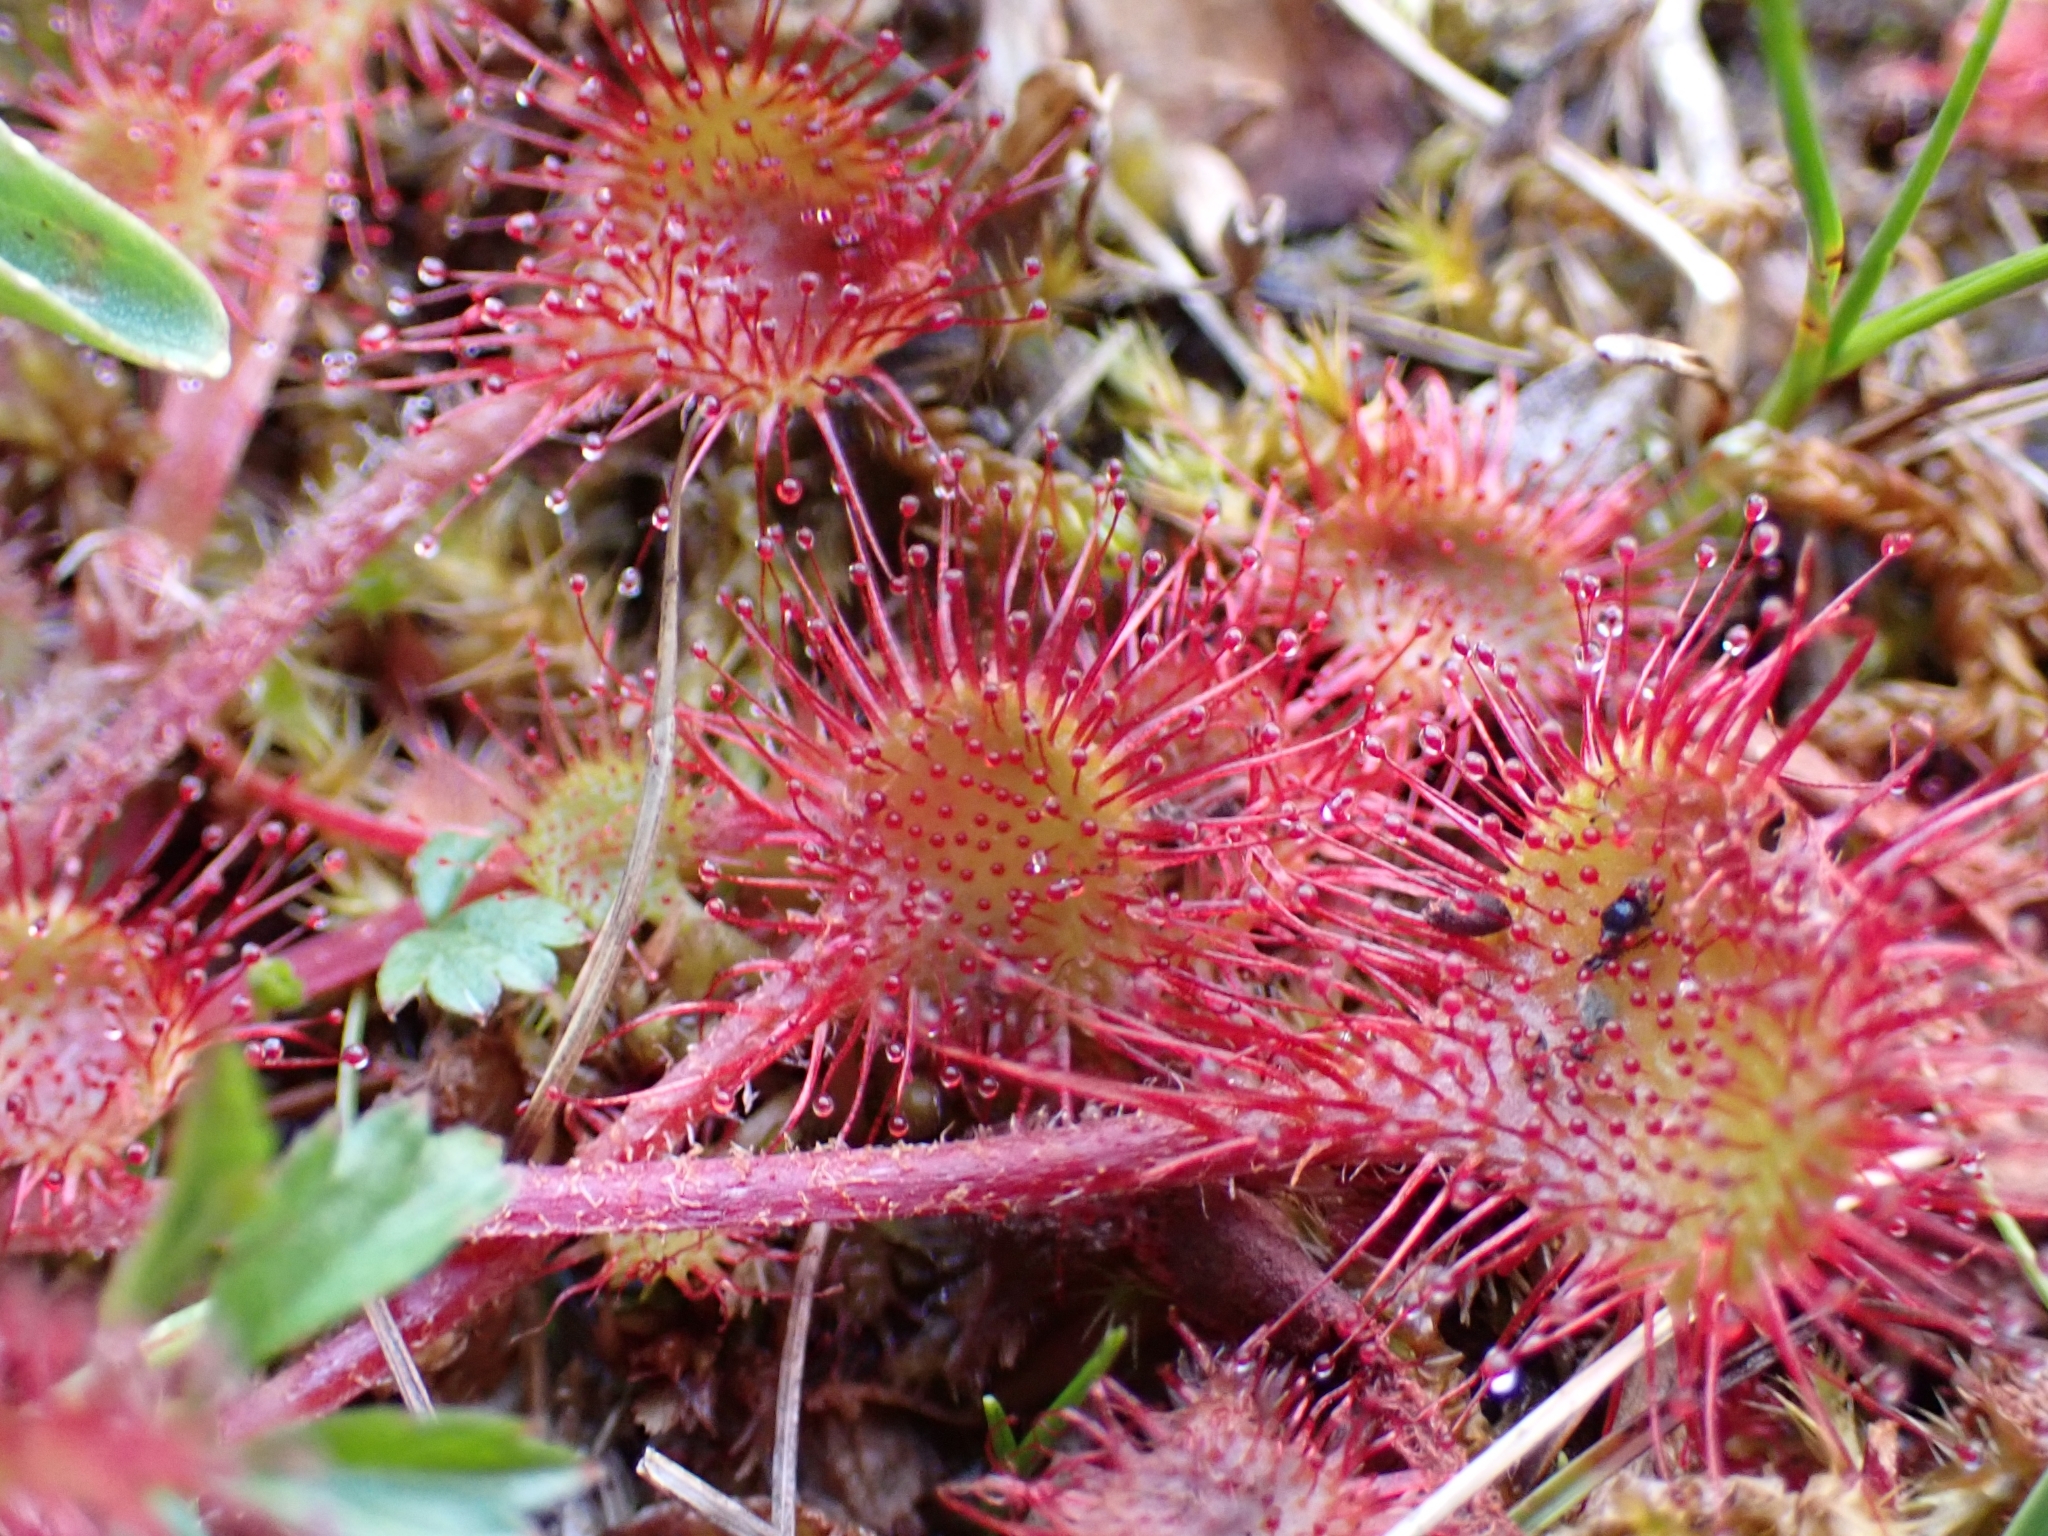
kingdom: Plantae
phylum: Tracheophyta
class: Magnoliopsida
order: Caryophyllales
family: Droseraceae
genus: Drosera
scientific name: Drosera rotundifolia
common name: Round-leaved sundew
